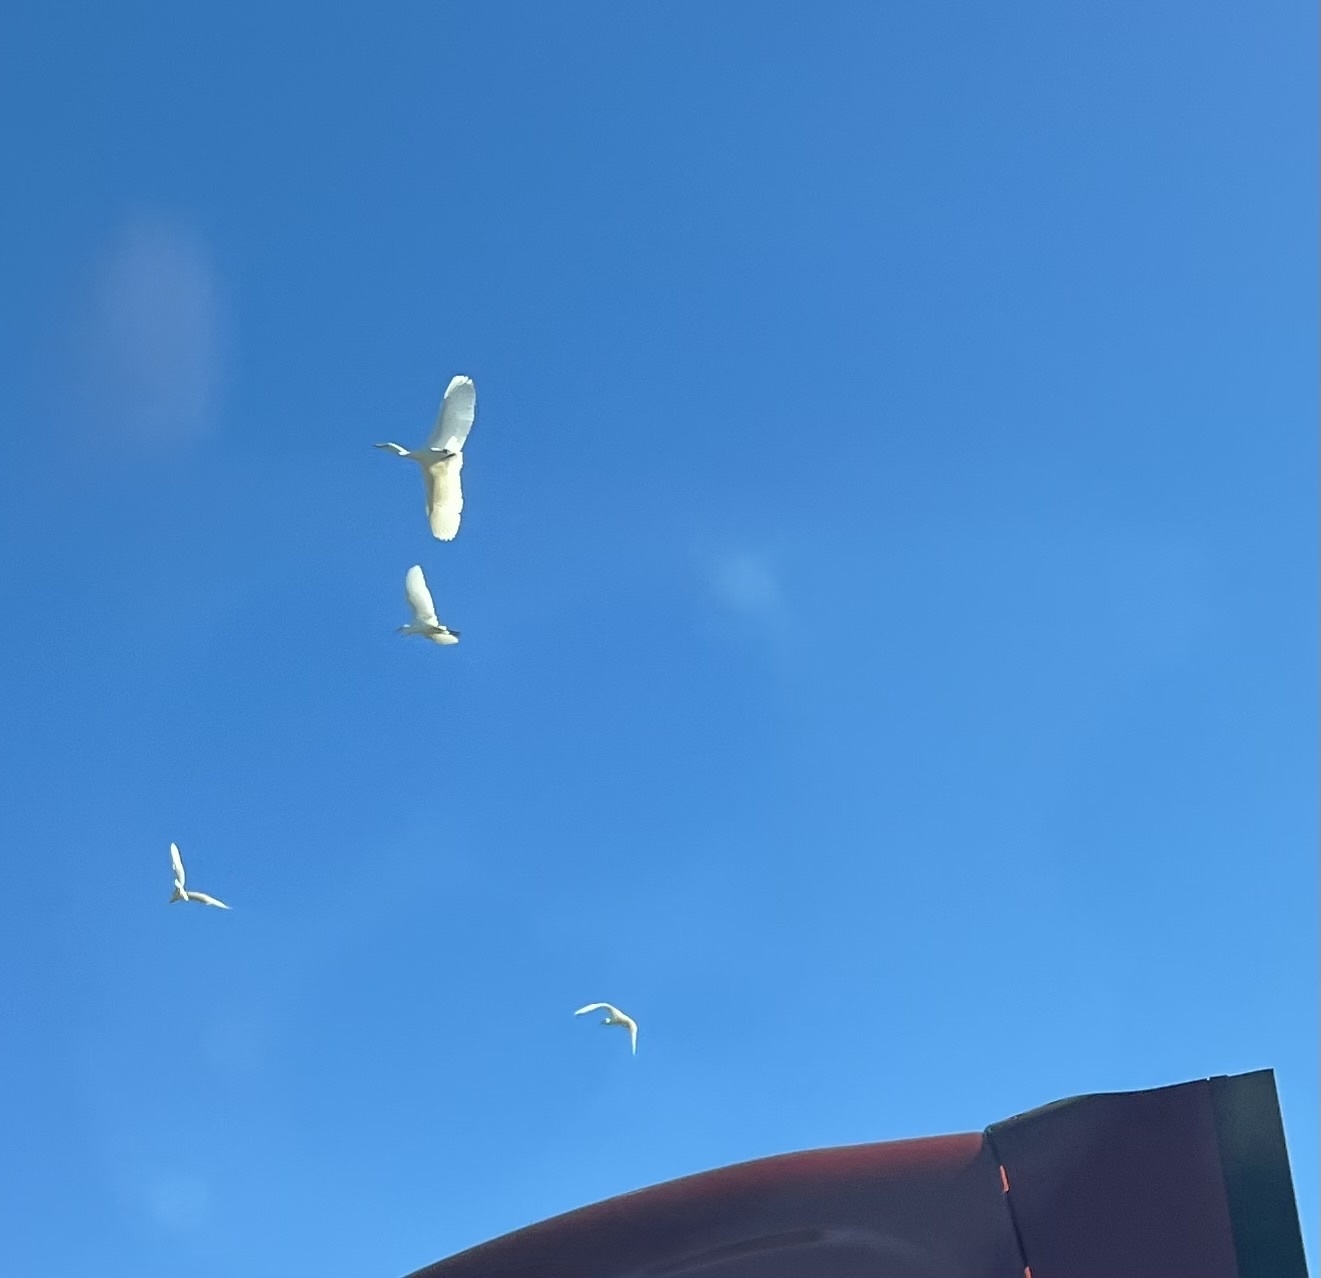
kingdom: Animalia
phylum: Chordata
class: Aves
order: Pelecaniformes
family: Ardeidae
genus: Bubulcus
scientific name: Bubulcus ibis
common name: Cattle egret
